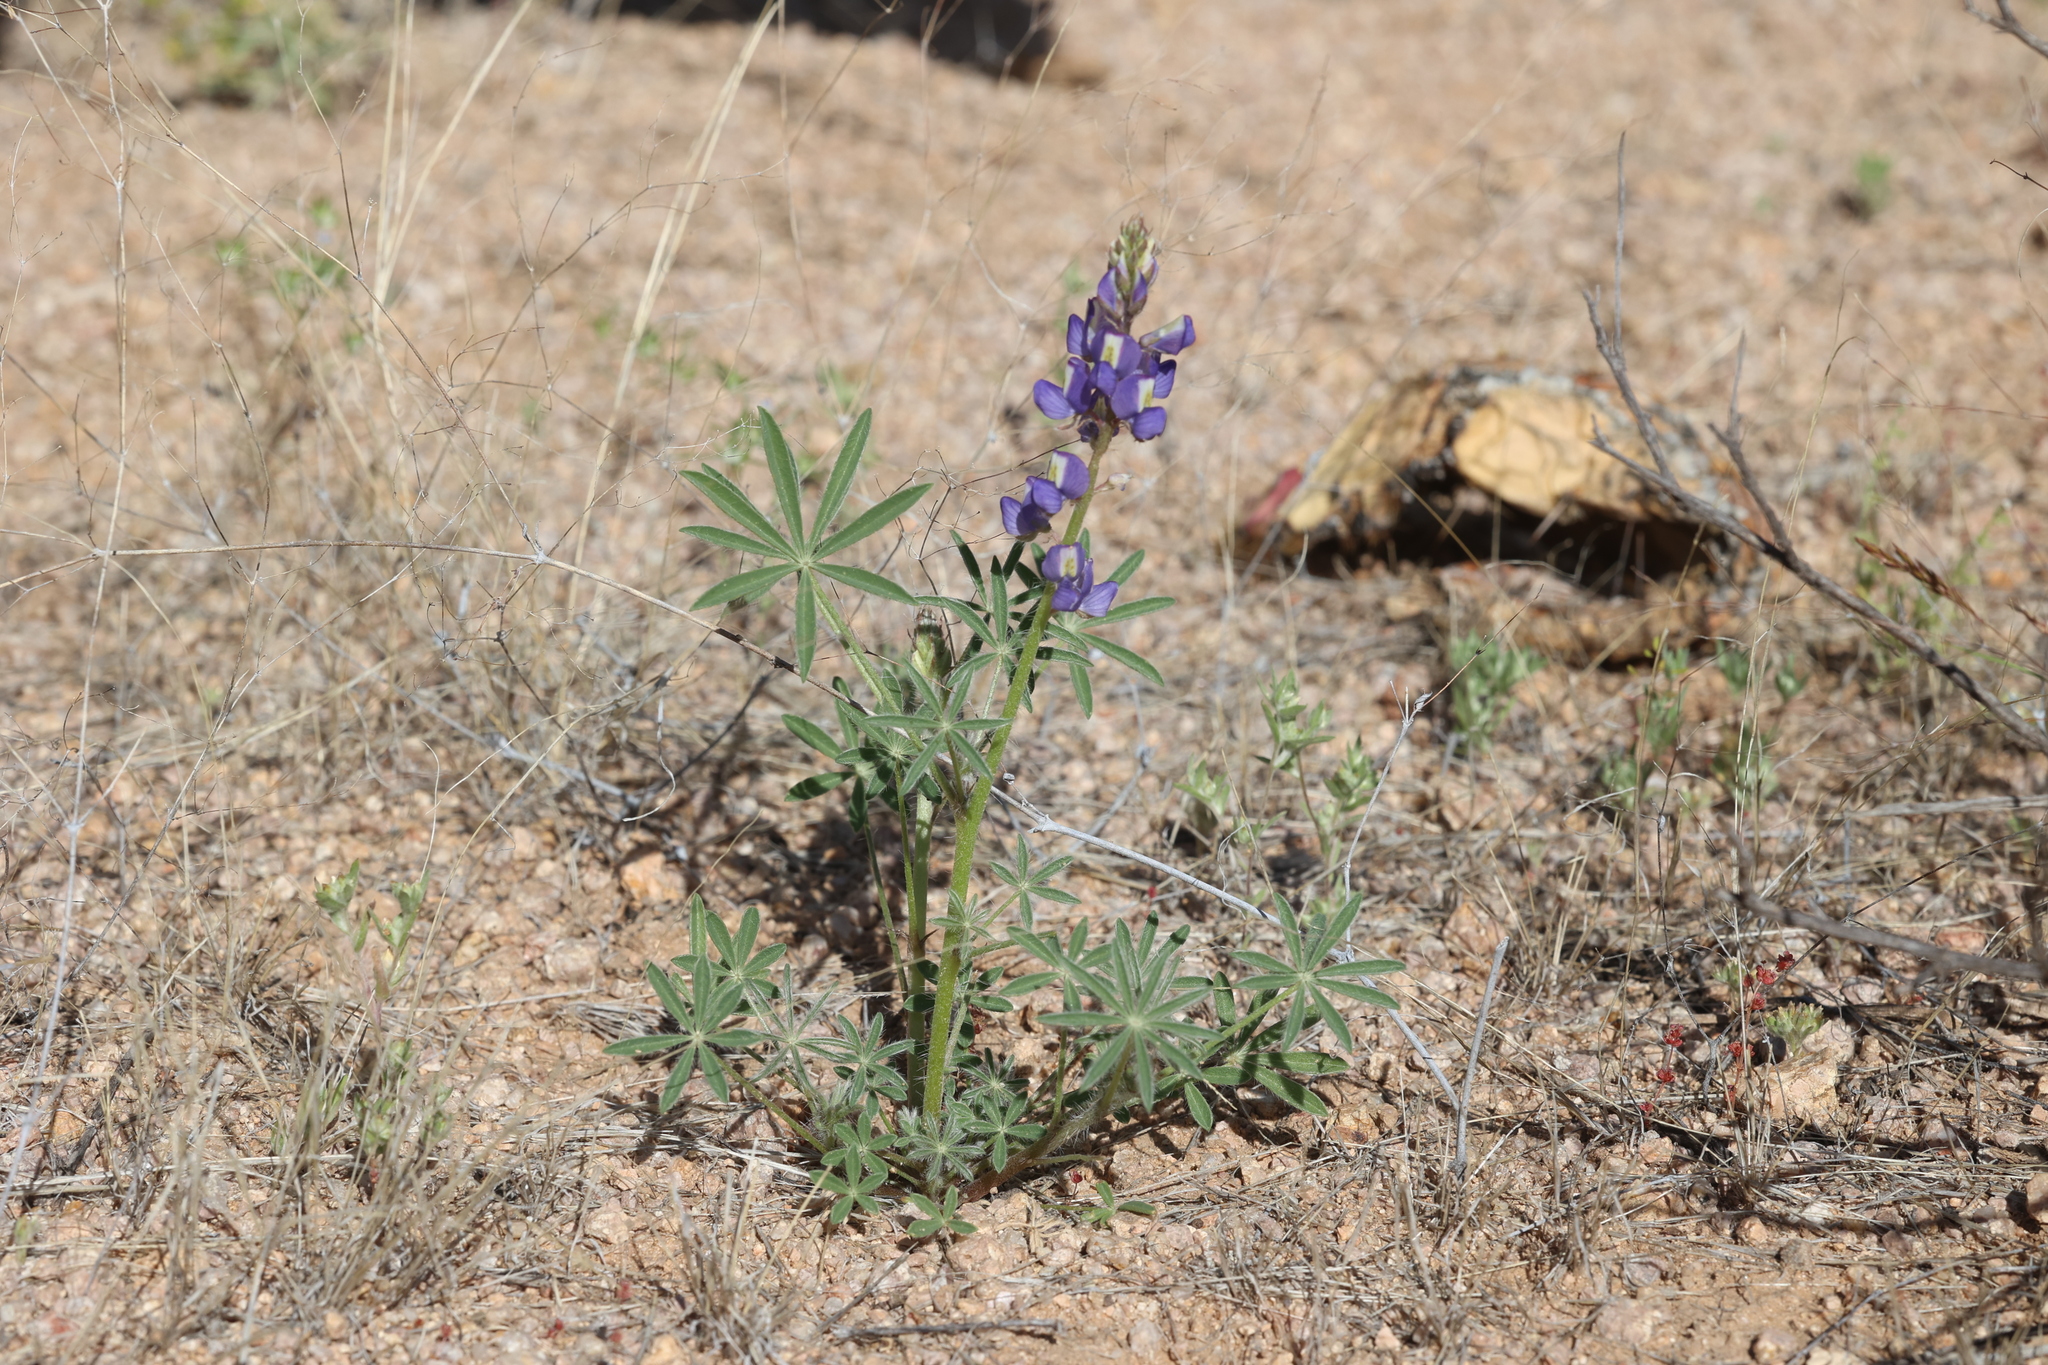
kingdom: Plantae
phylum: Tracheophyta
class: Magnoliopsida
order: Fabales
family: Fabaceae
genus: Lupinus
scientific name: Lupinus sparsiflorus
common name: Coulter's lupine
